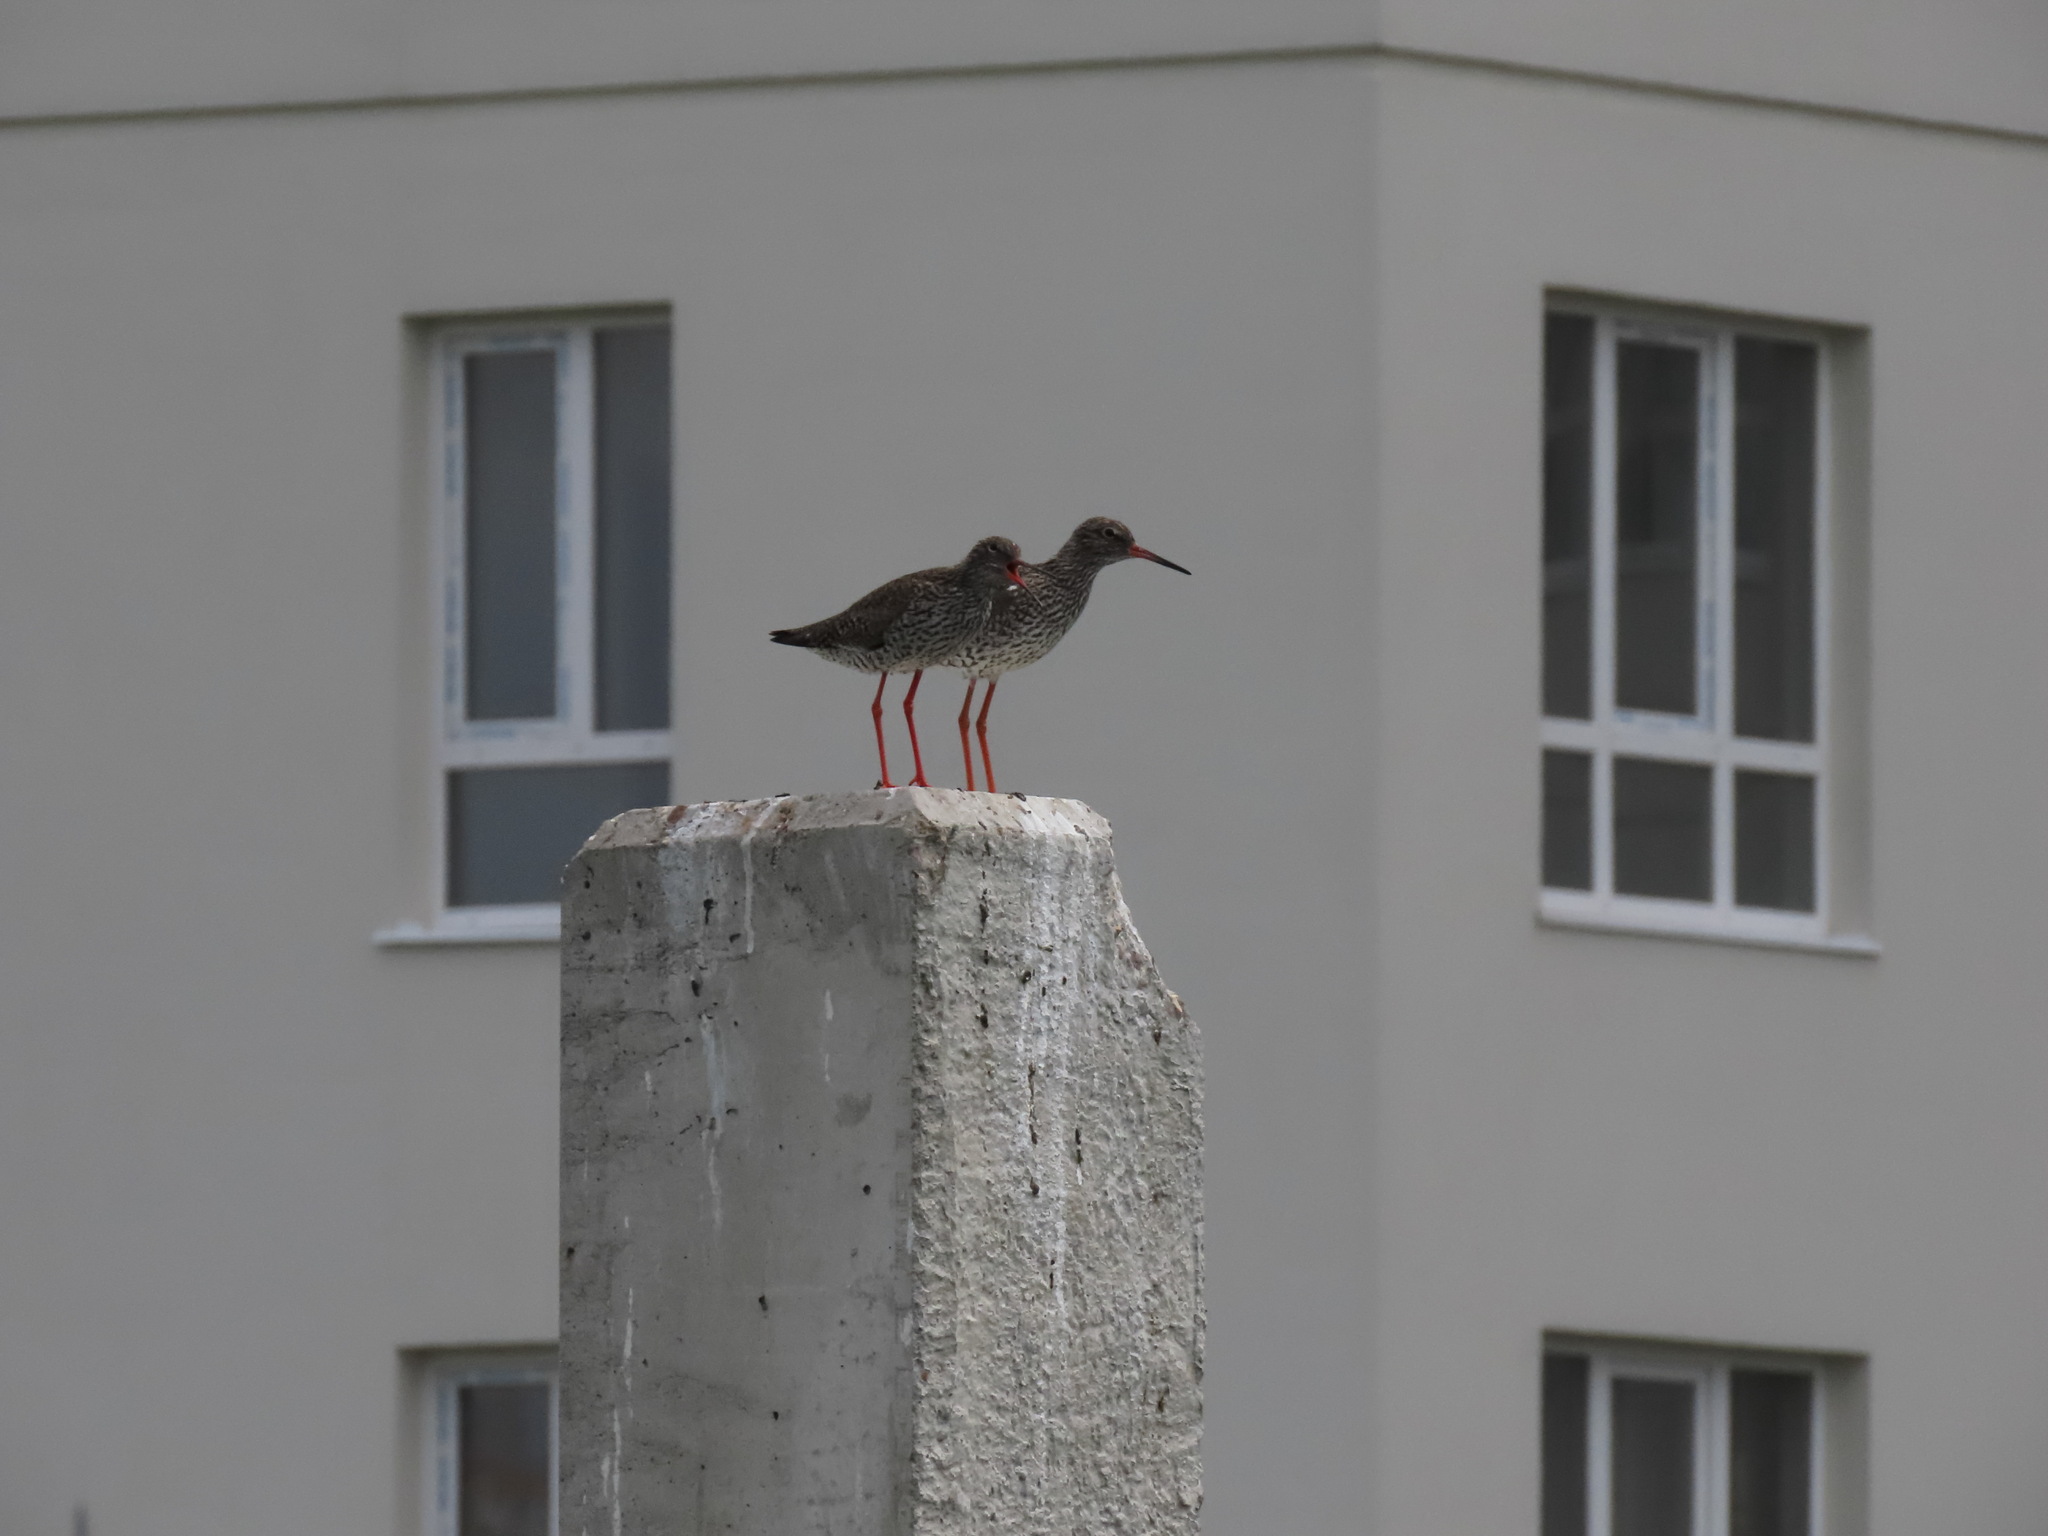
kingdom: Animalia
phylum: Chordata
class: Aves
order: Charadriiformes
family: Scolopacidae
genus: Tringa
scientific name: Tringa totanus
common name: Common redshank
